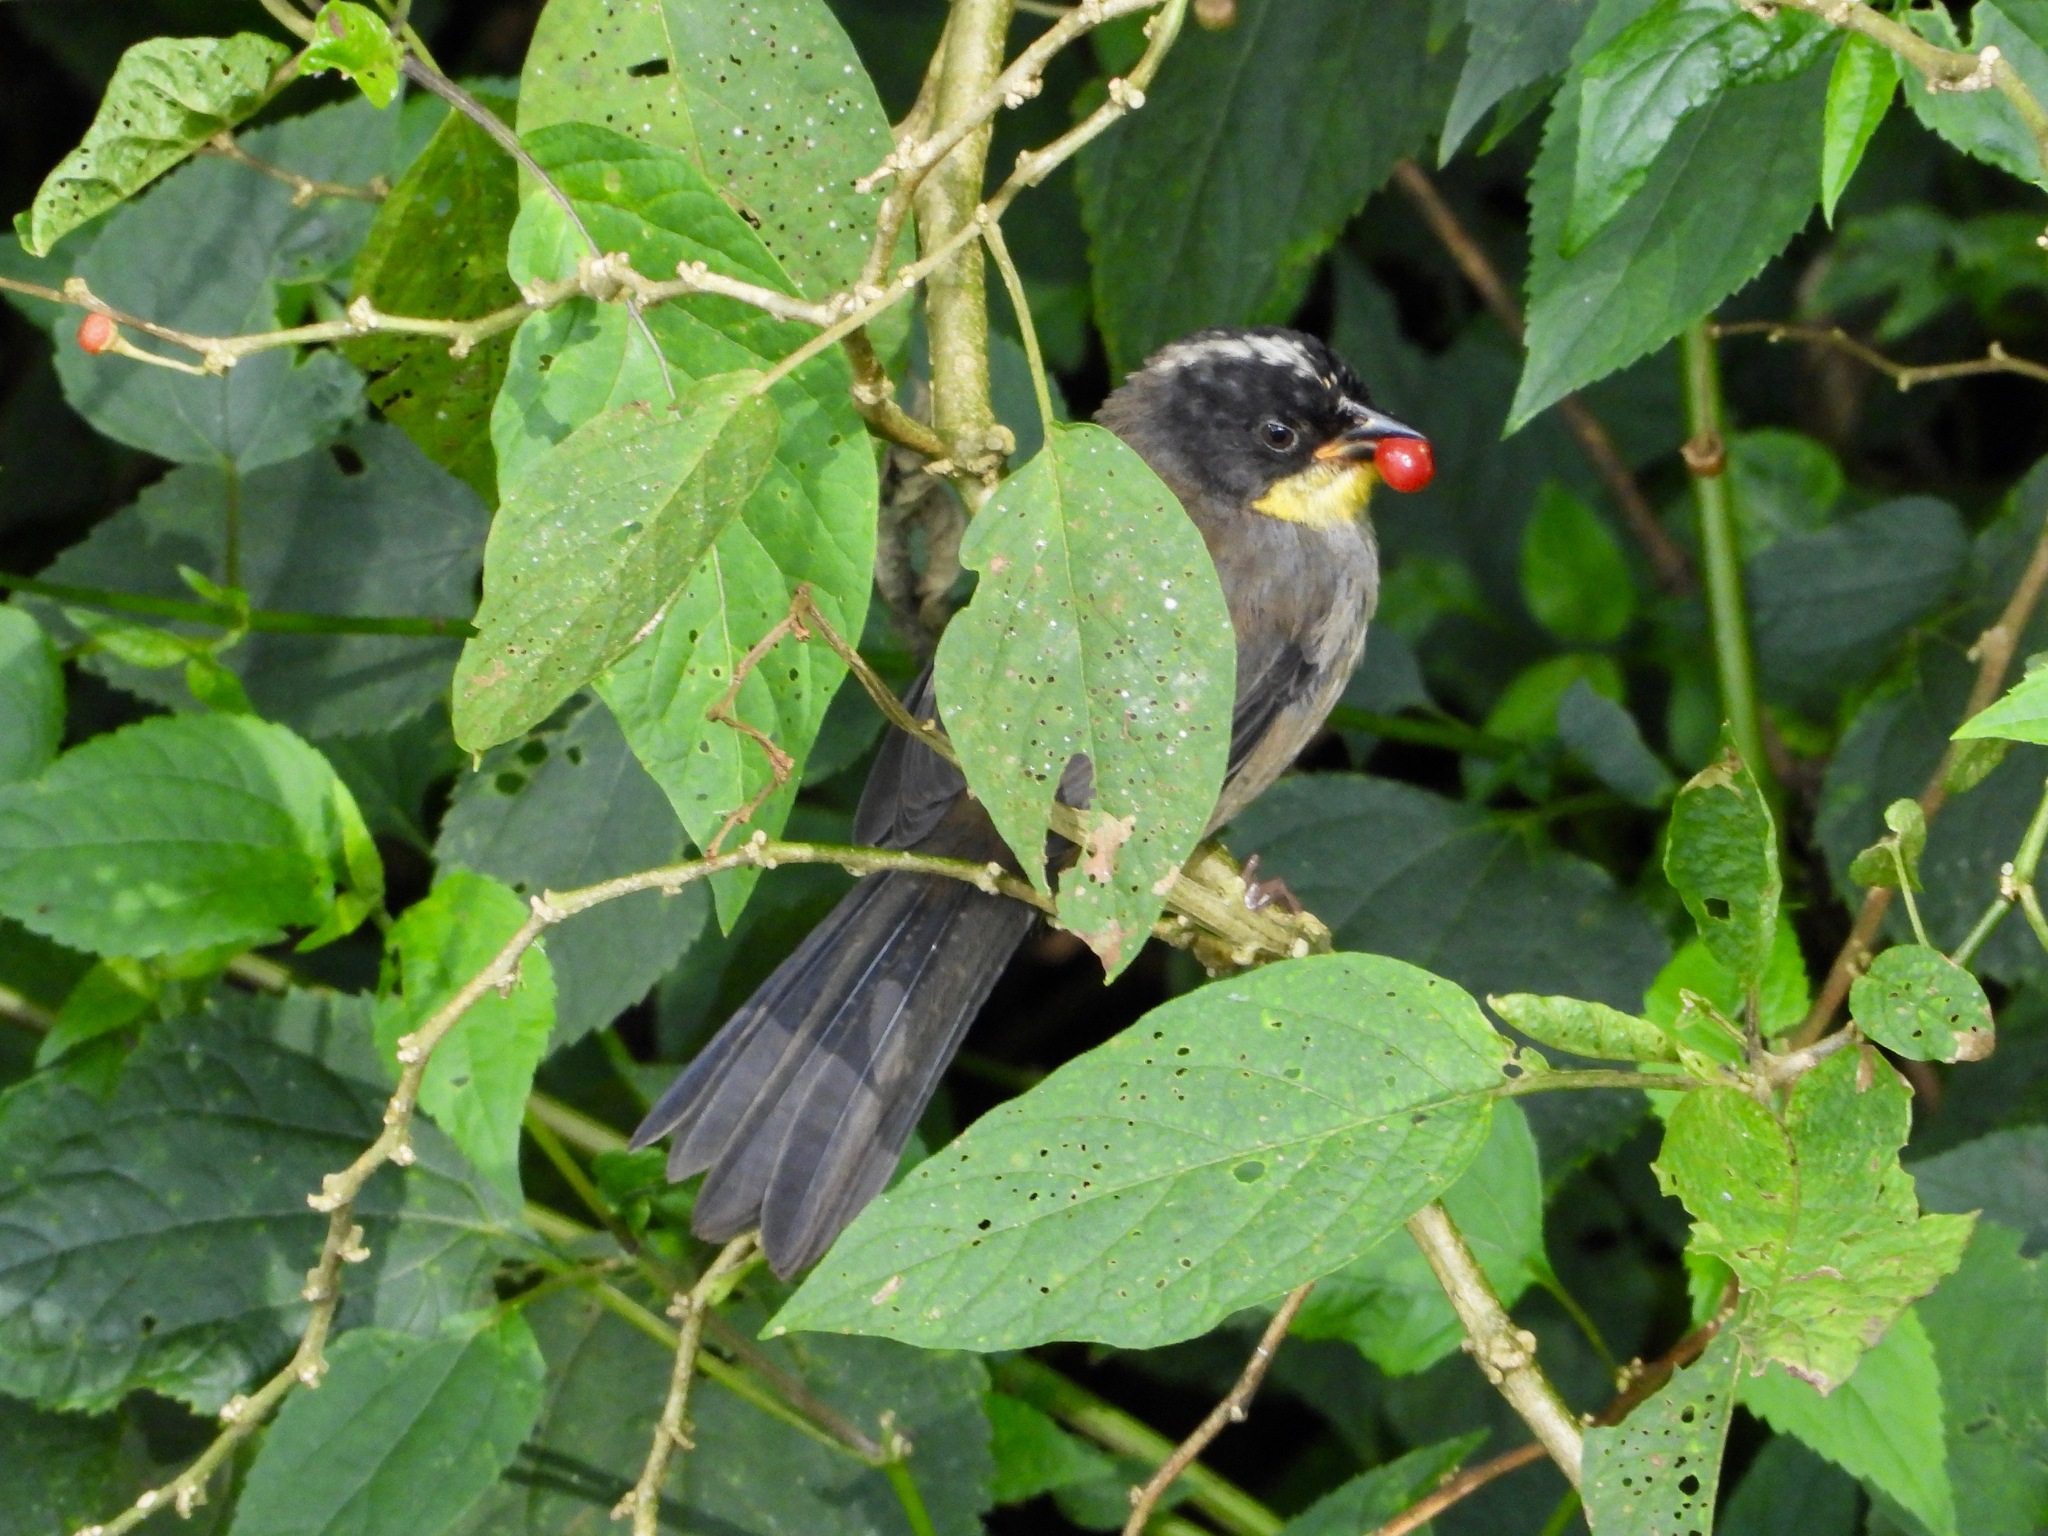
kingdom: Animalia
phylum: Chordata
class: Aves
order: Passeriformes
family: Passerellidae
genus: Atlapetes
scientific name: Atlapetes albinucha
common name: White-naped brush-finch
